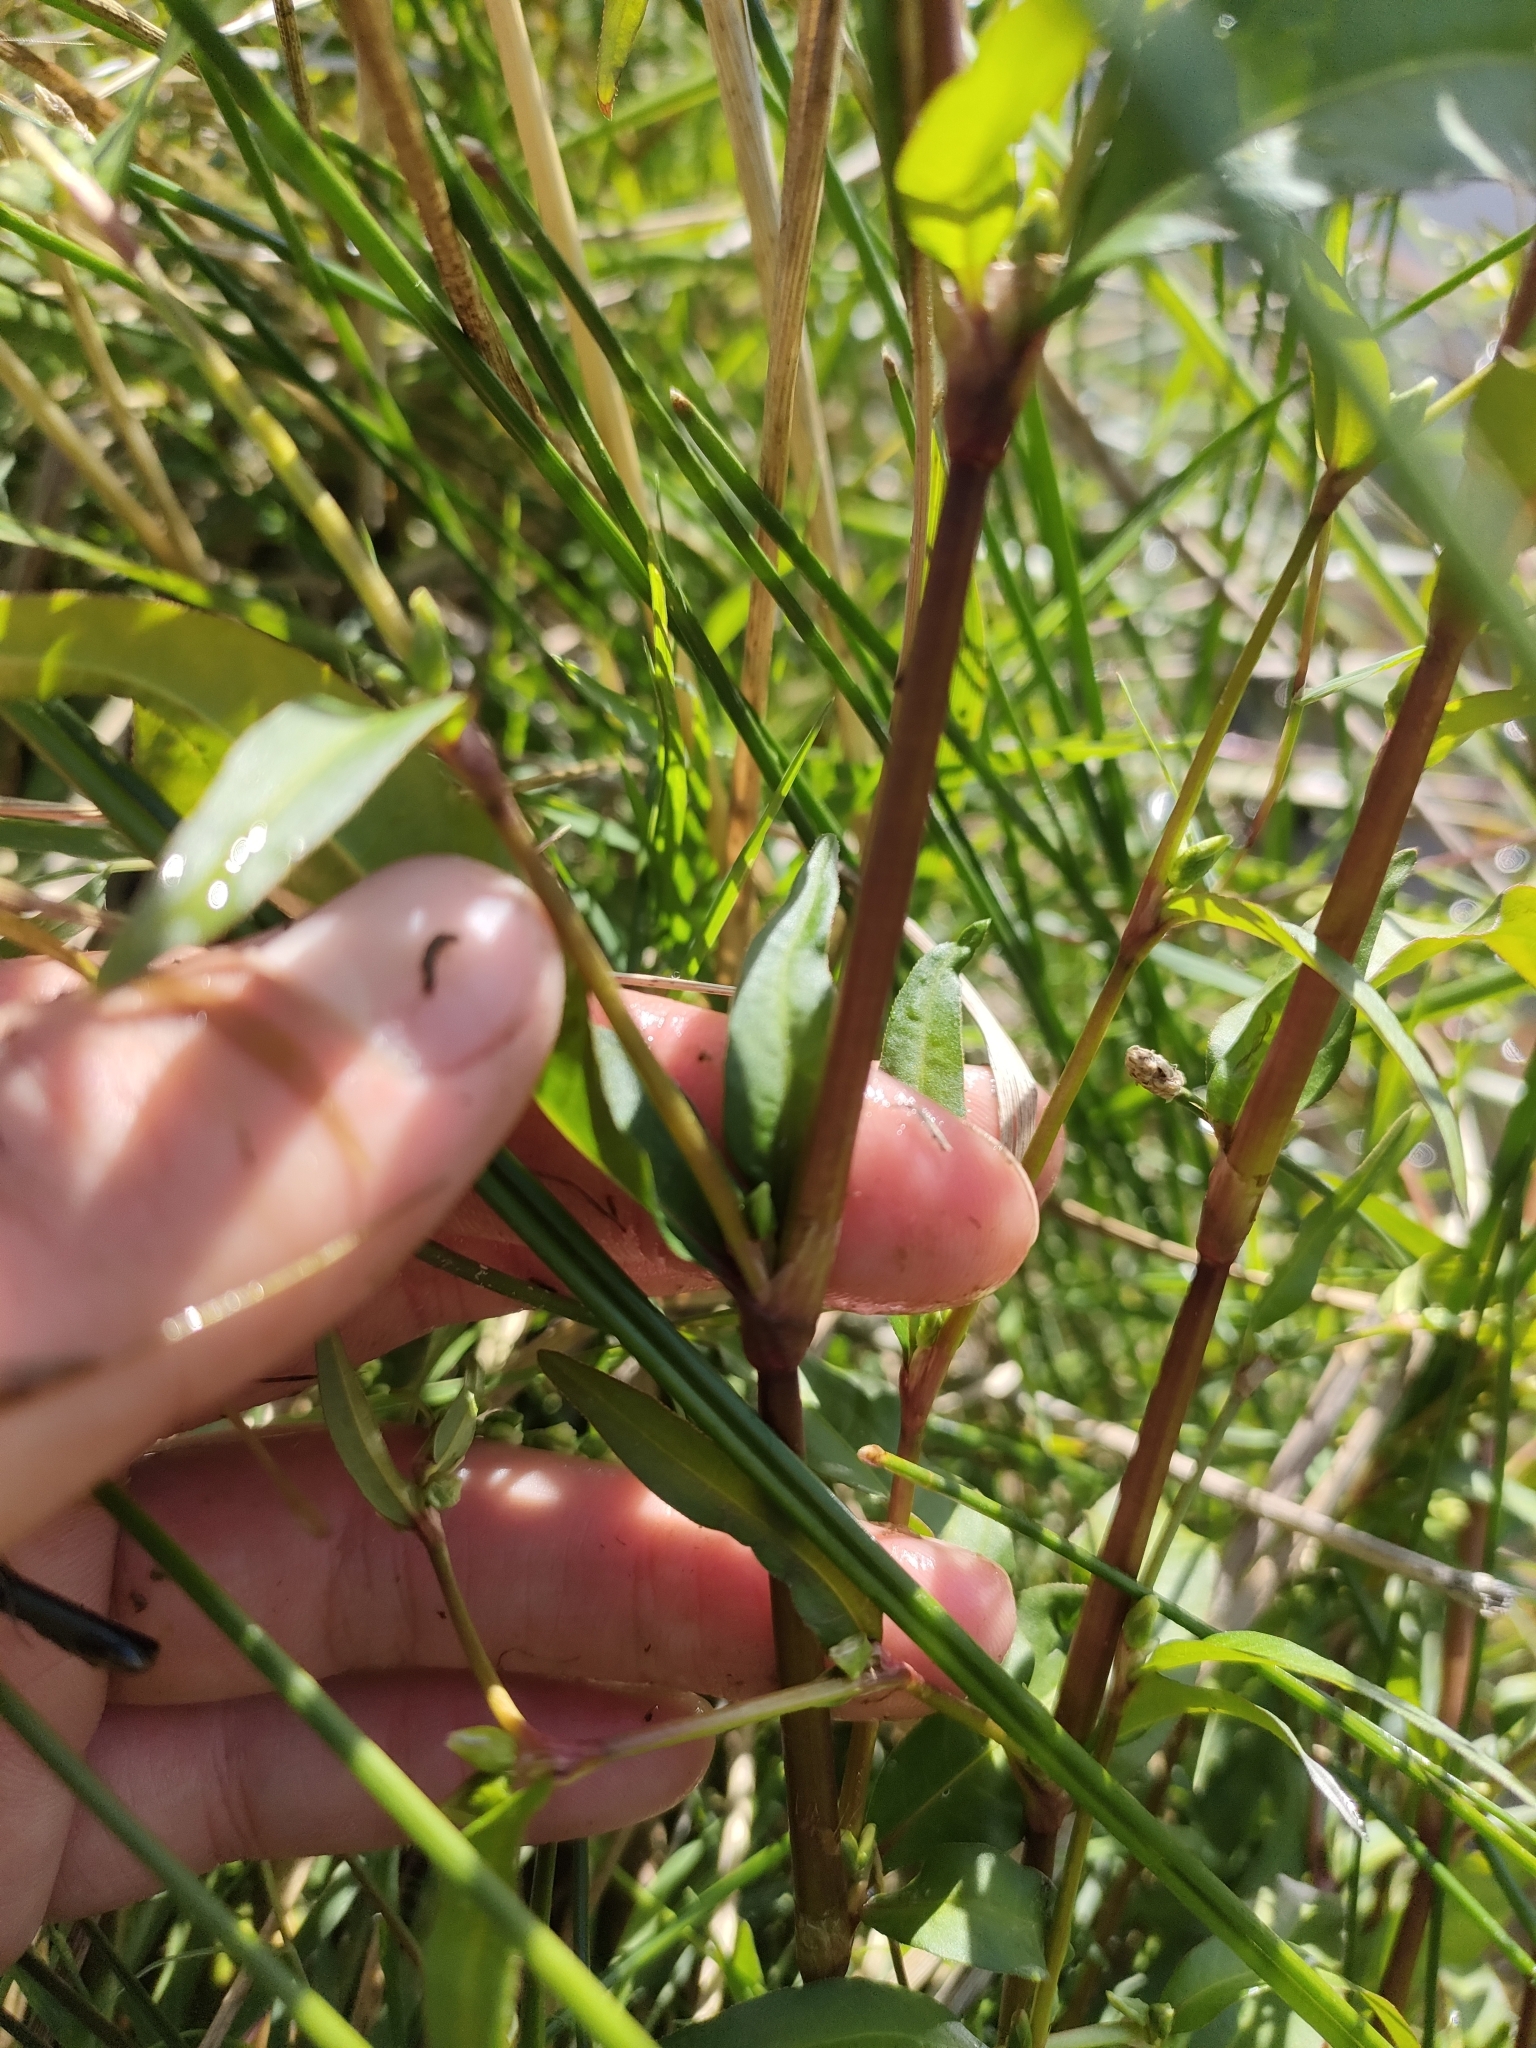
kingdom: Plantae
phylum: Tracheophyta
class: Magnoliopsida
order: Caryophyllales
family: Polygonaceae
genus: Persicaria
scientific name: Persicaria hydropiper
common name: Water-pepper
